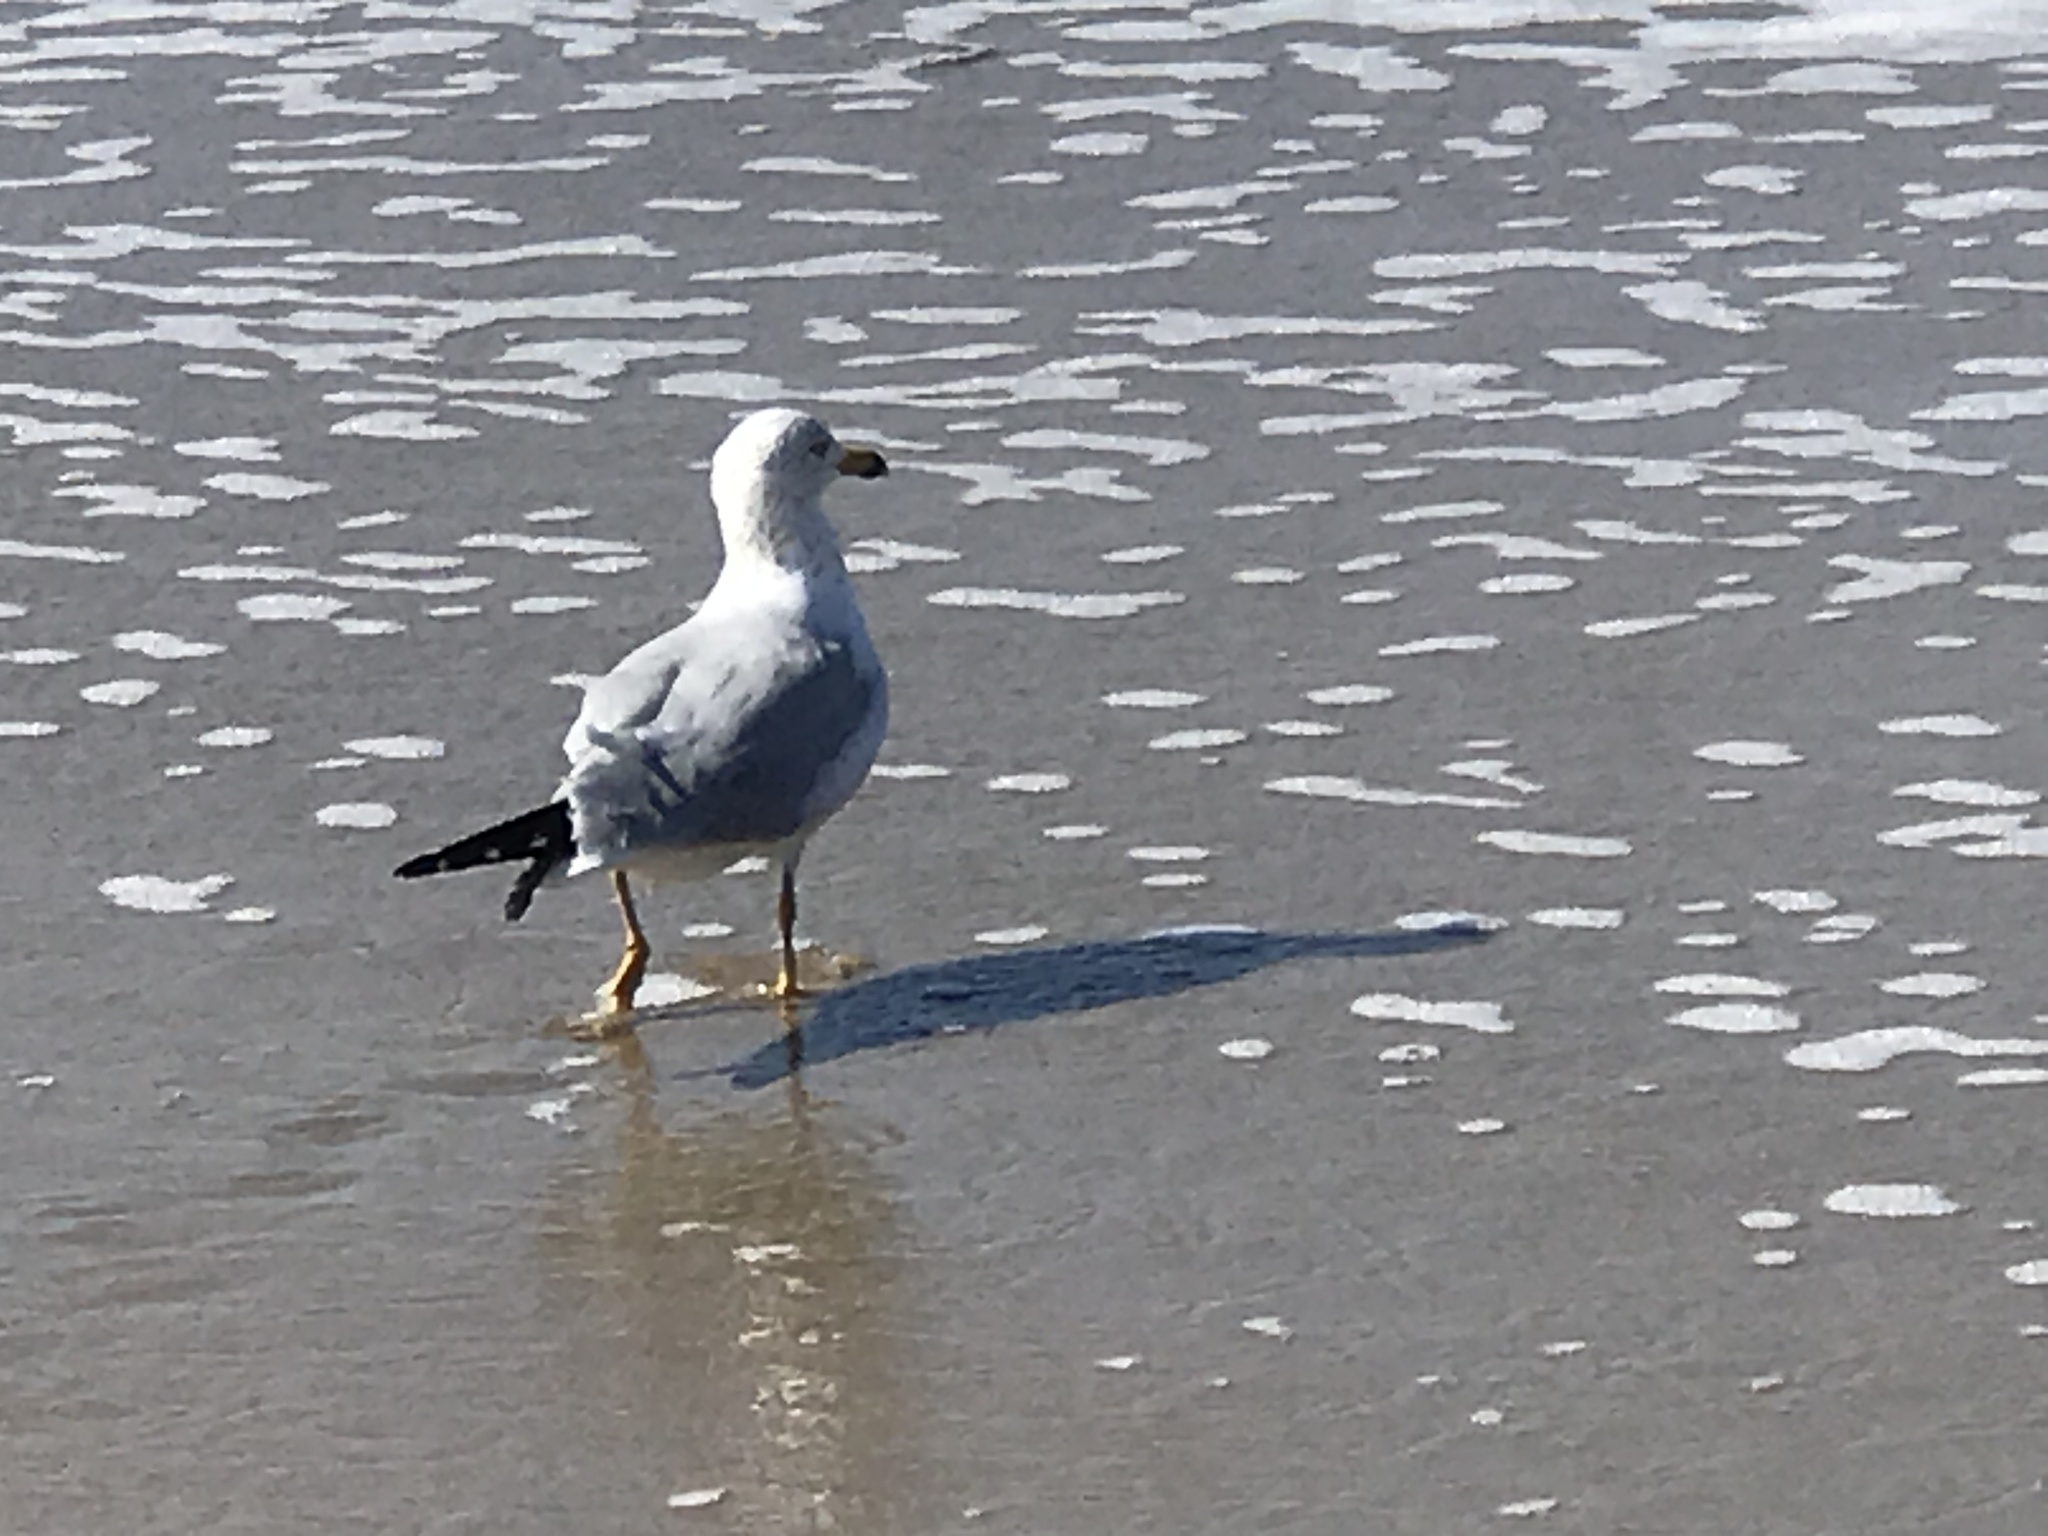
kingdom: Animalia
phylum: Chordata
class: Aves
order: Charadriiformes
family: Laridae
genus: Larus
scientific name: Larus delawarensis
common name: Ring-billed gull
